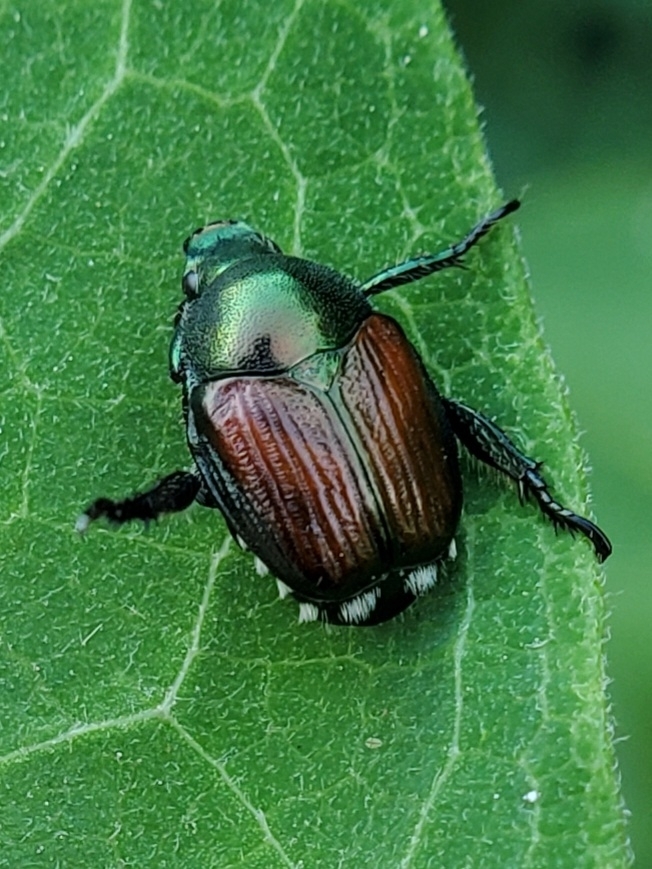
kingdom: Animalia
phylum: Arthropoda
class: Insecta
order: Coleoptera
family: Scarabaeidae
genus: Popillia
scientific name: Popillia japonica
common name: Japanese beetle
